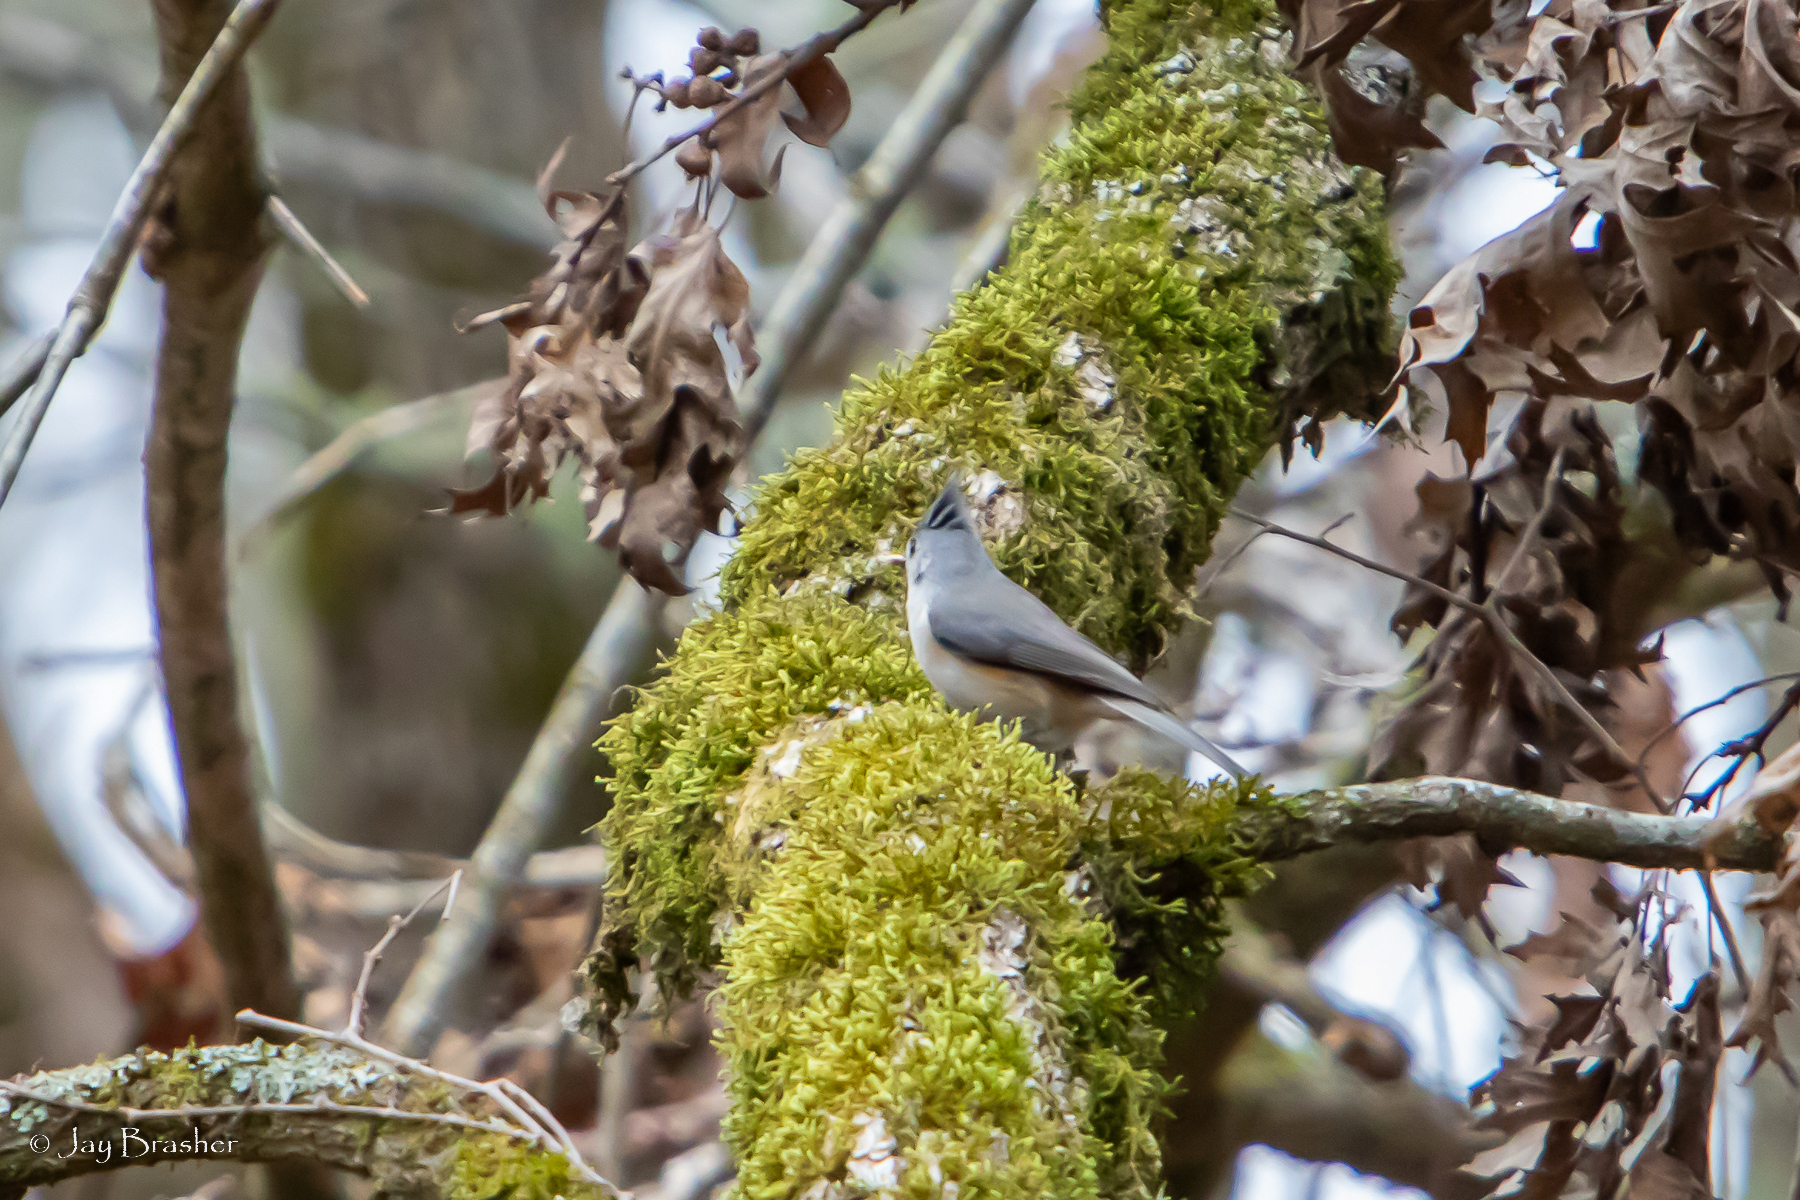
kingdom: Animalia
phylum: Chordata
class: Aves
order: Passeriformes
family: Paridae
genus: Baeolophus
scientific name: Baeolophus bicolor
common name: Tufted titmouse
